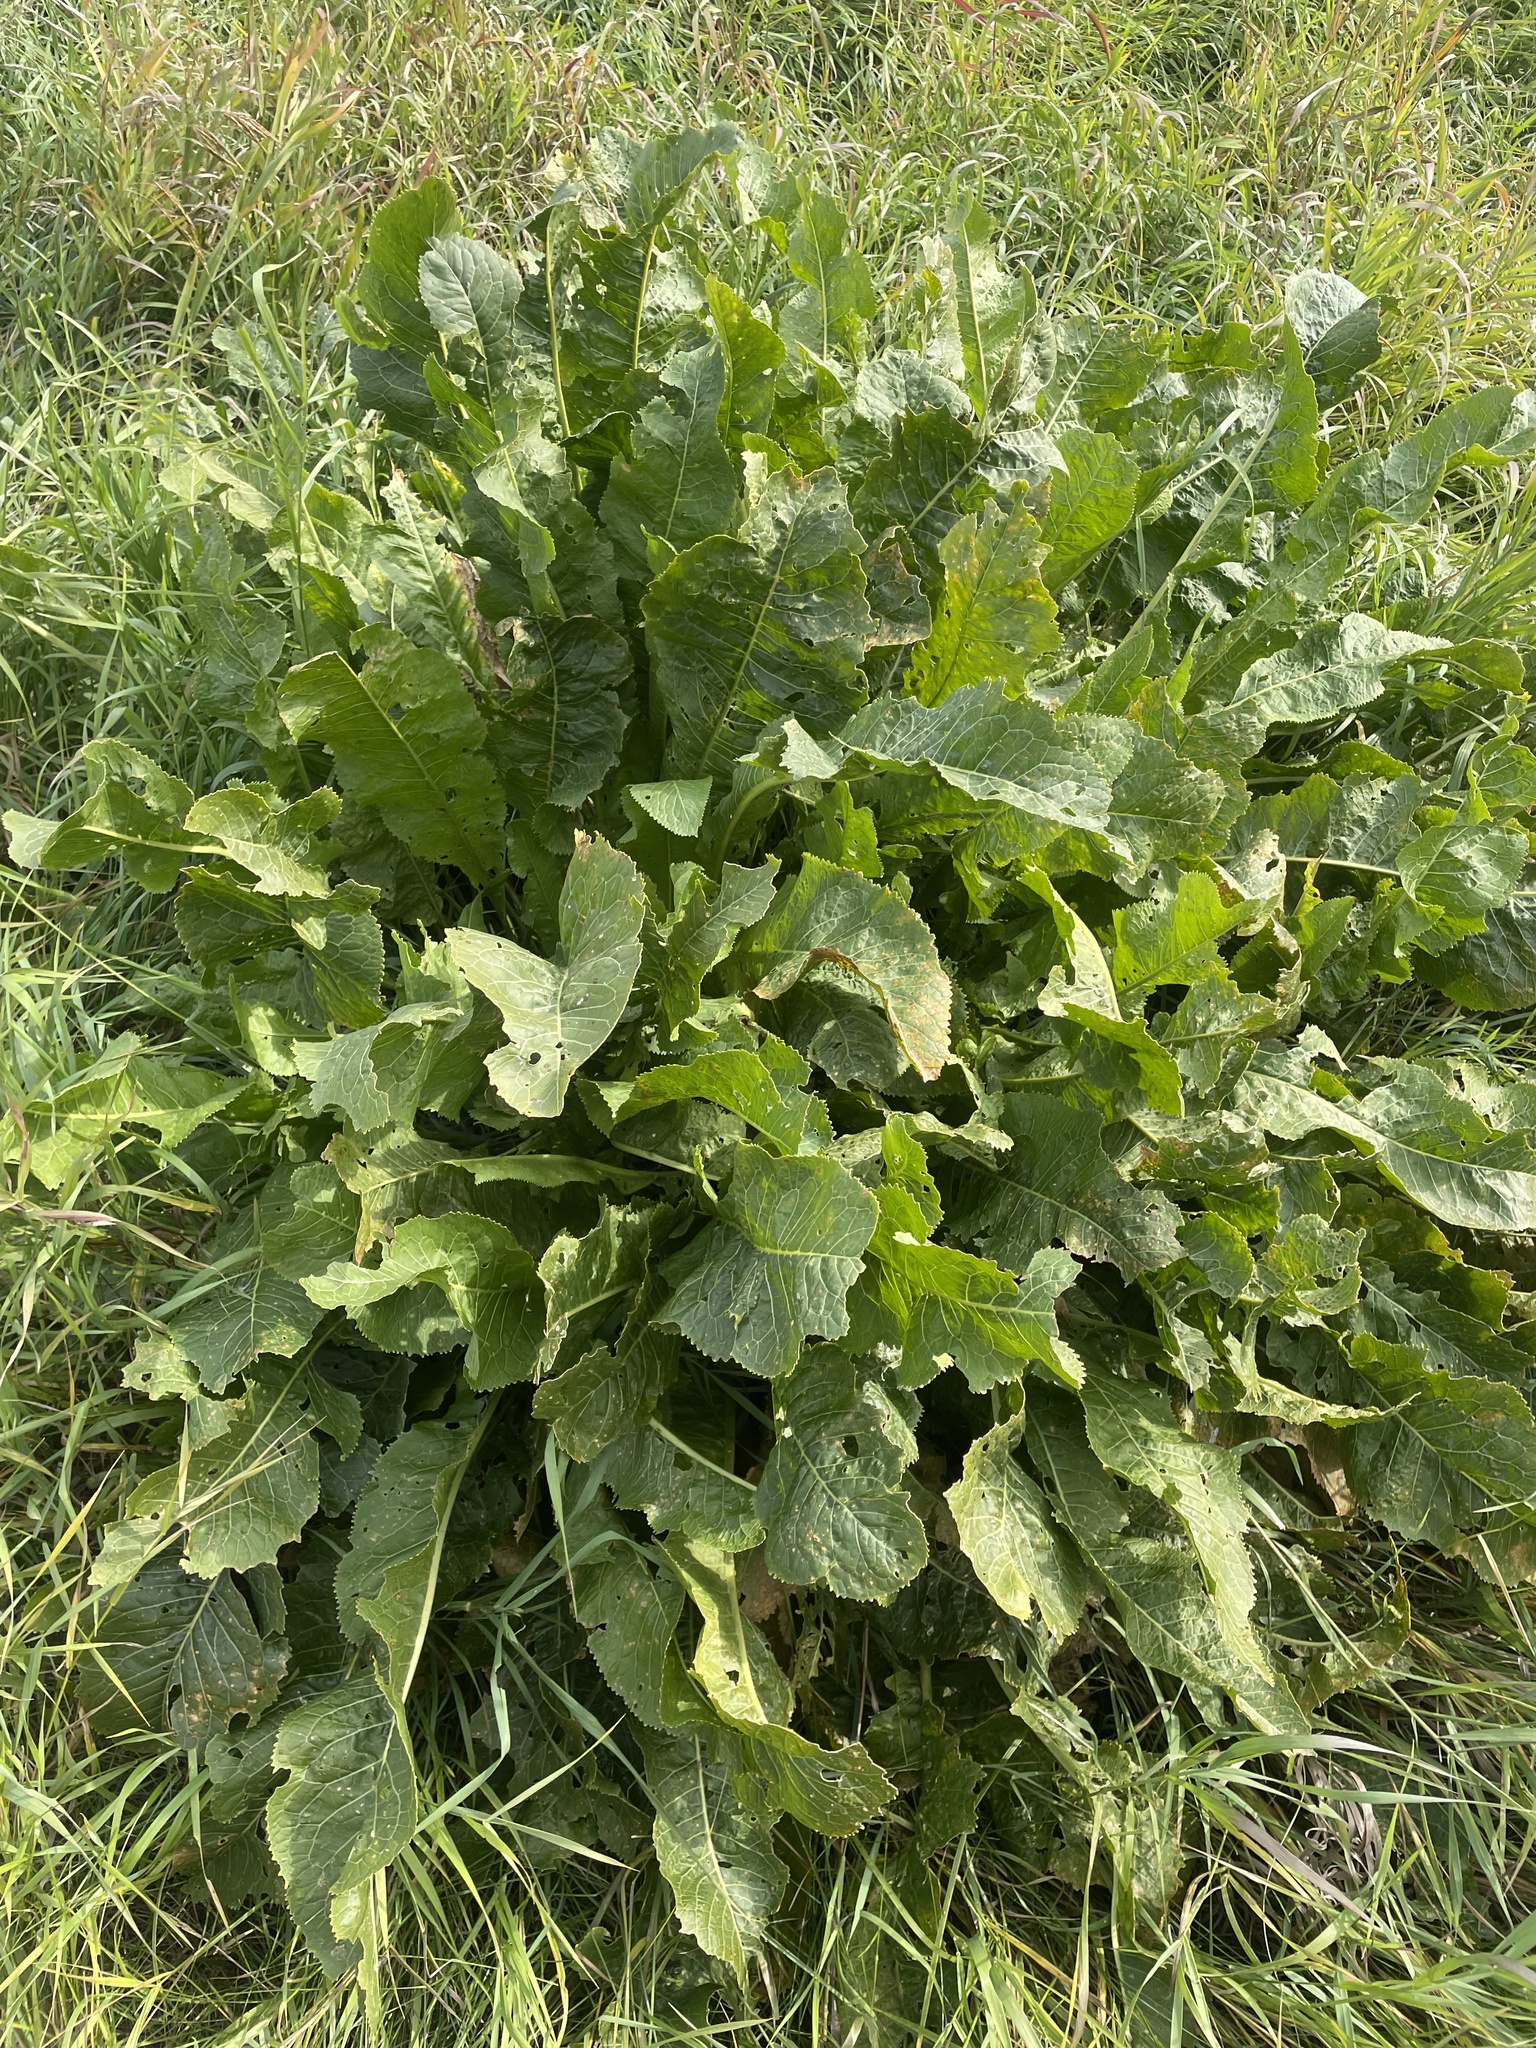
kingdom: Plantae
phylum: Tracheophyta
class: Magnoliopsida
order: Brassicales
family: Brassicaceae
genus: Armoracia
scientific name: Armoracia rusticana
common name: Horseradish
